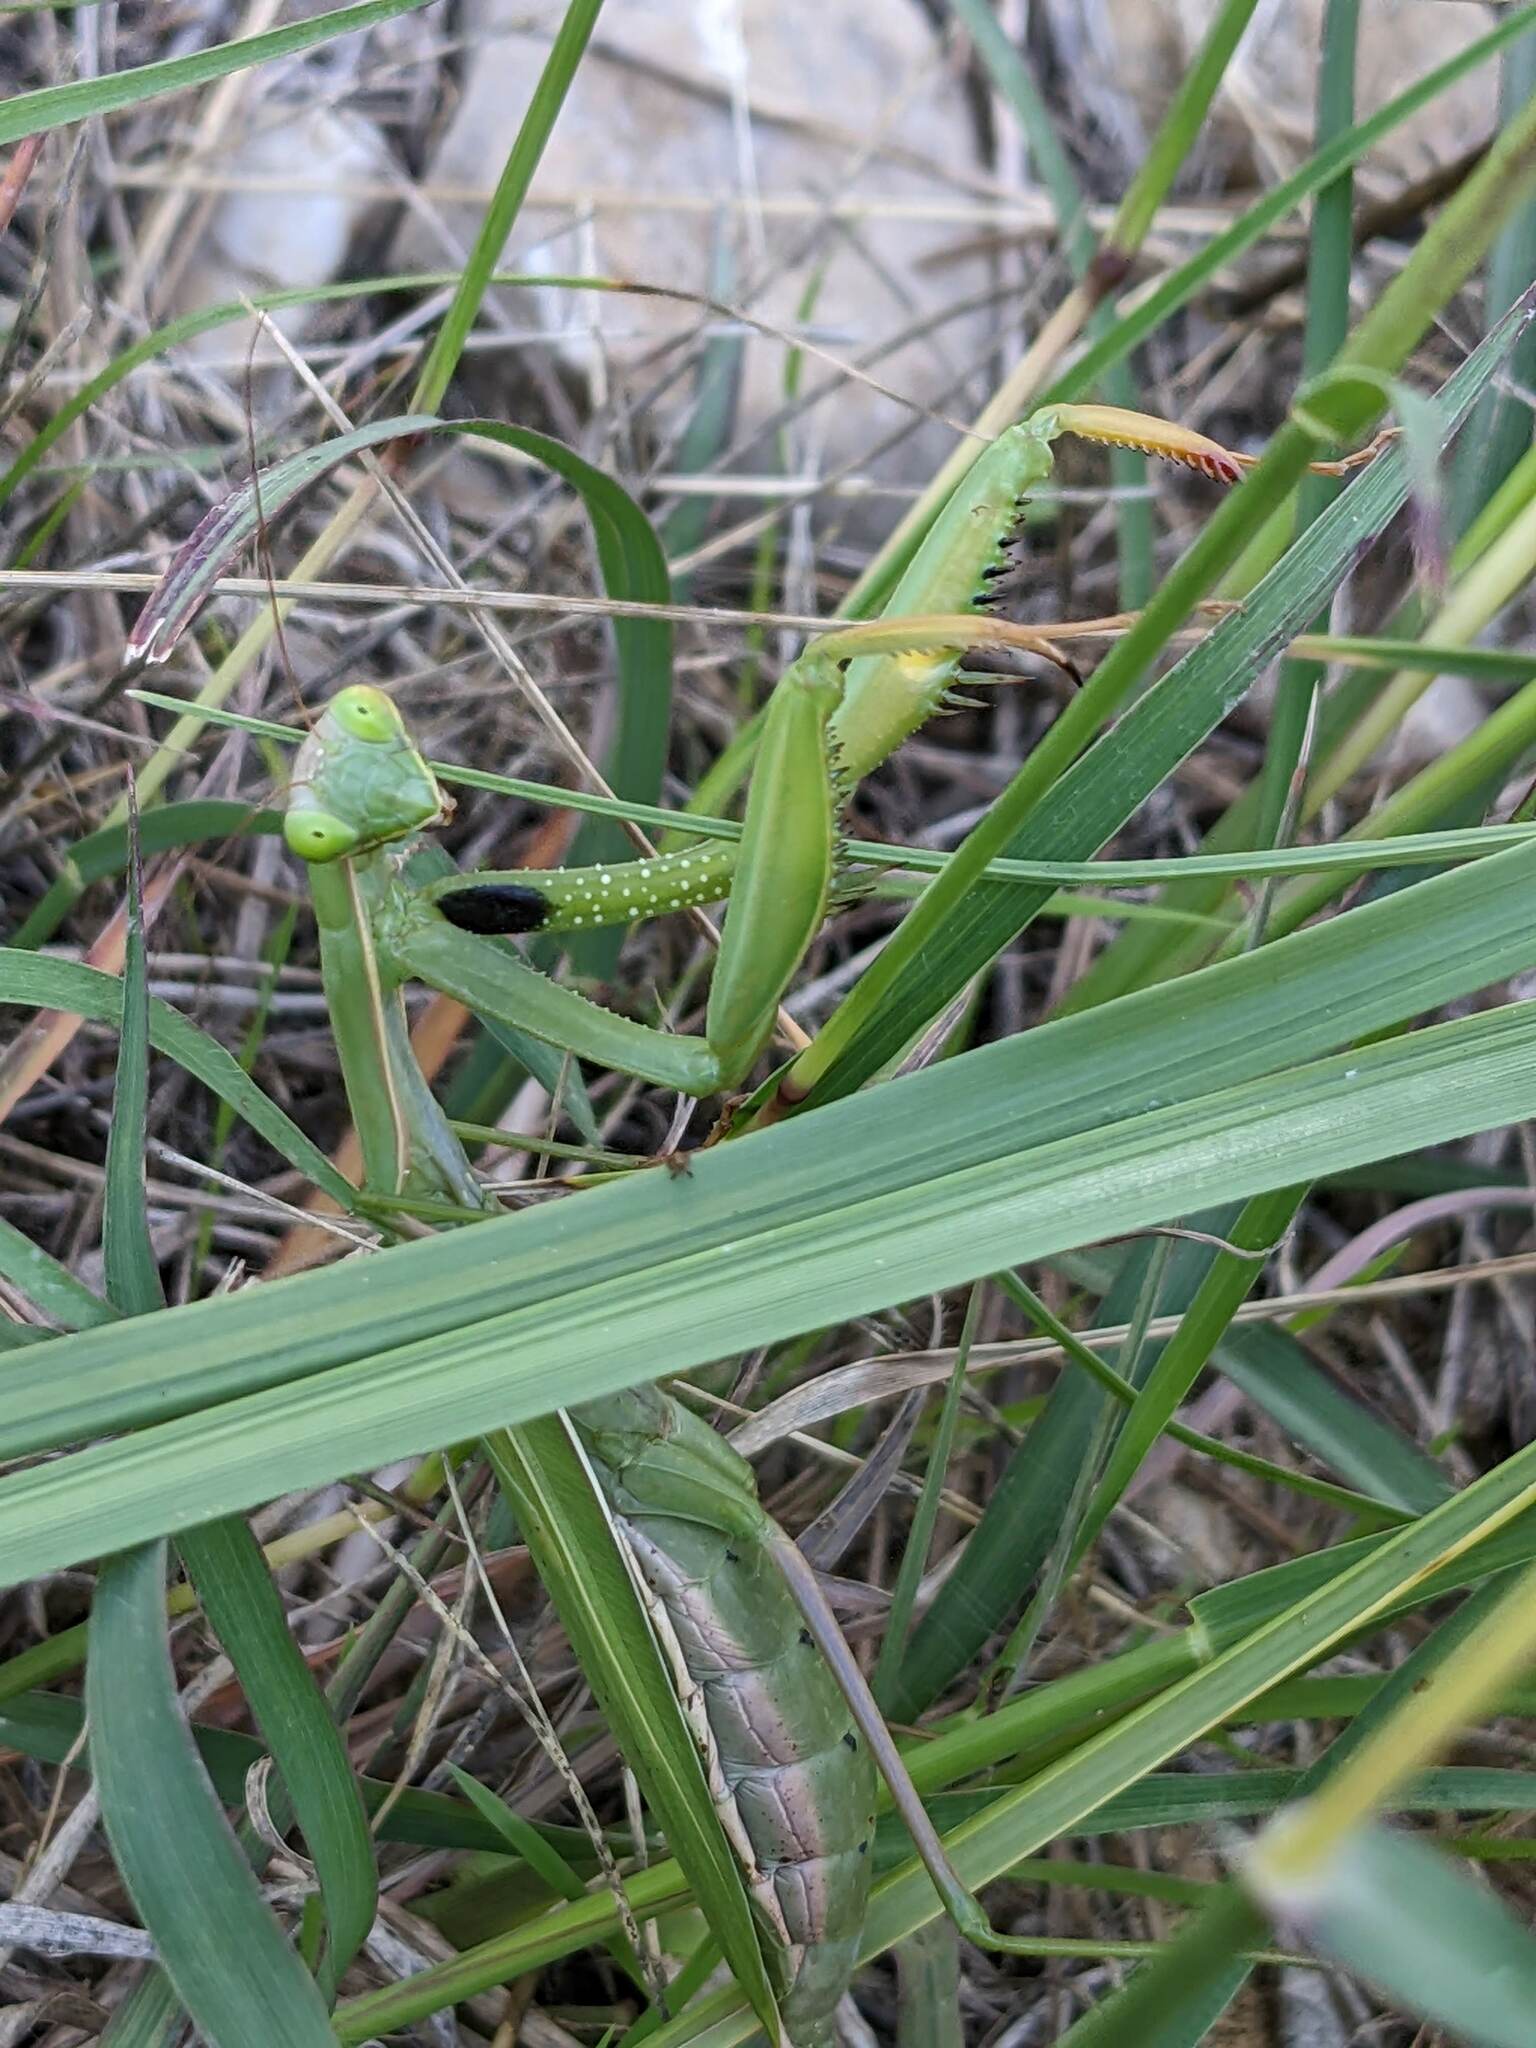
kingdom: Animalia
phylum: Arthropoda
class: Insecta
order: Mantodea
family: Mantidae
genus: Mantis
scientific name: Mantis religiosa
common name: Praying mantis
